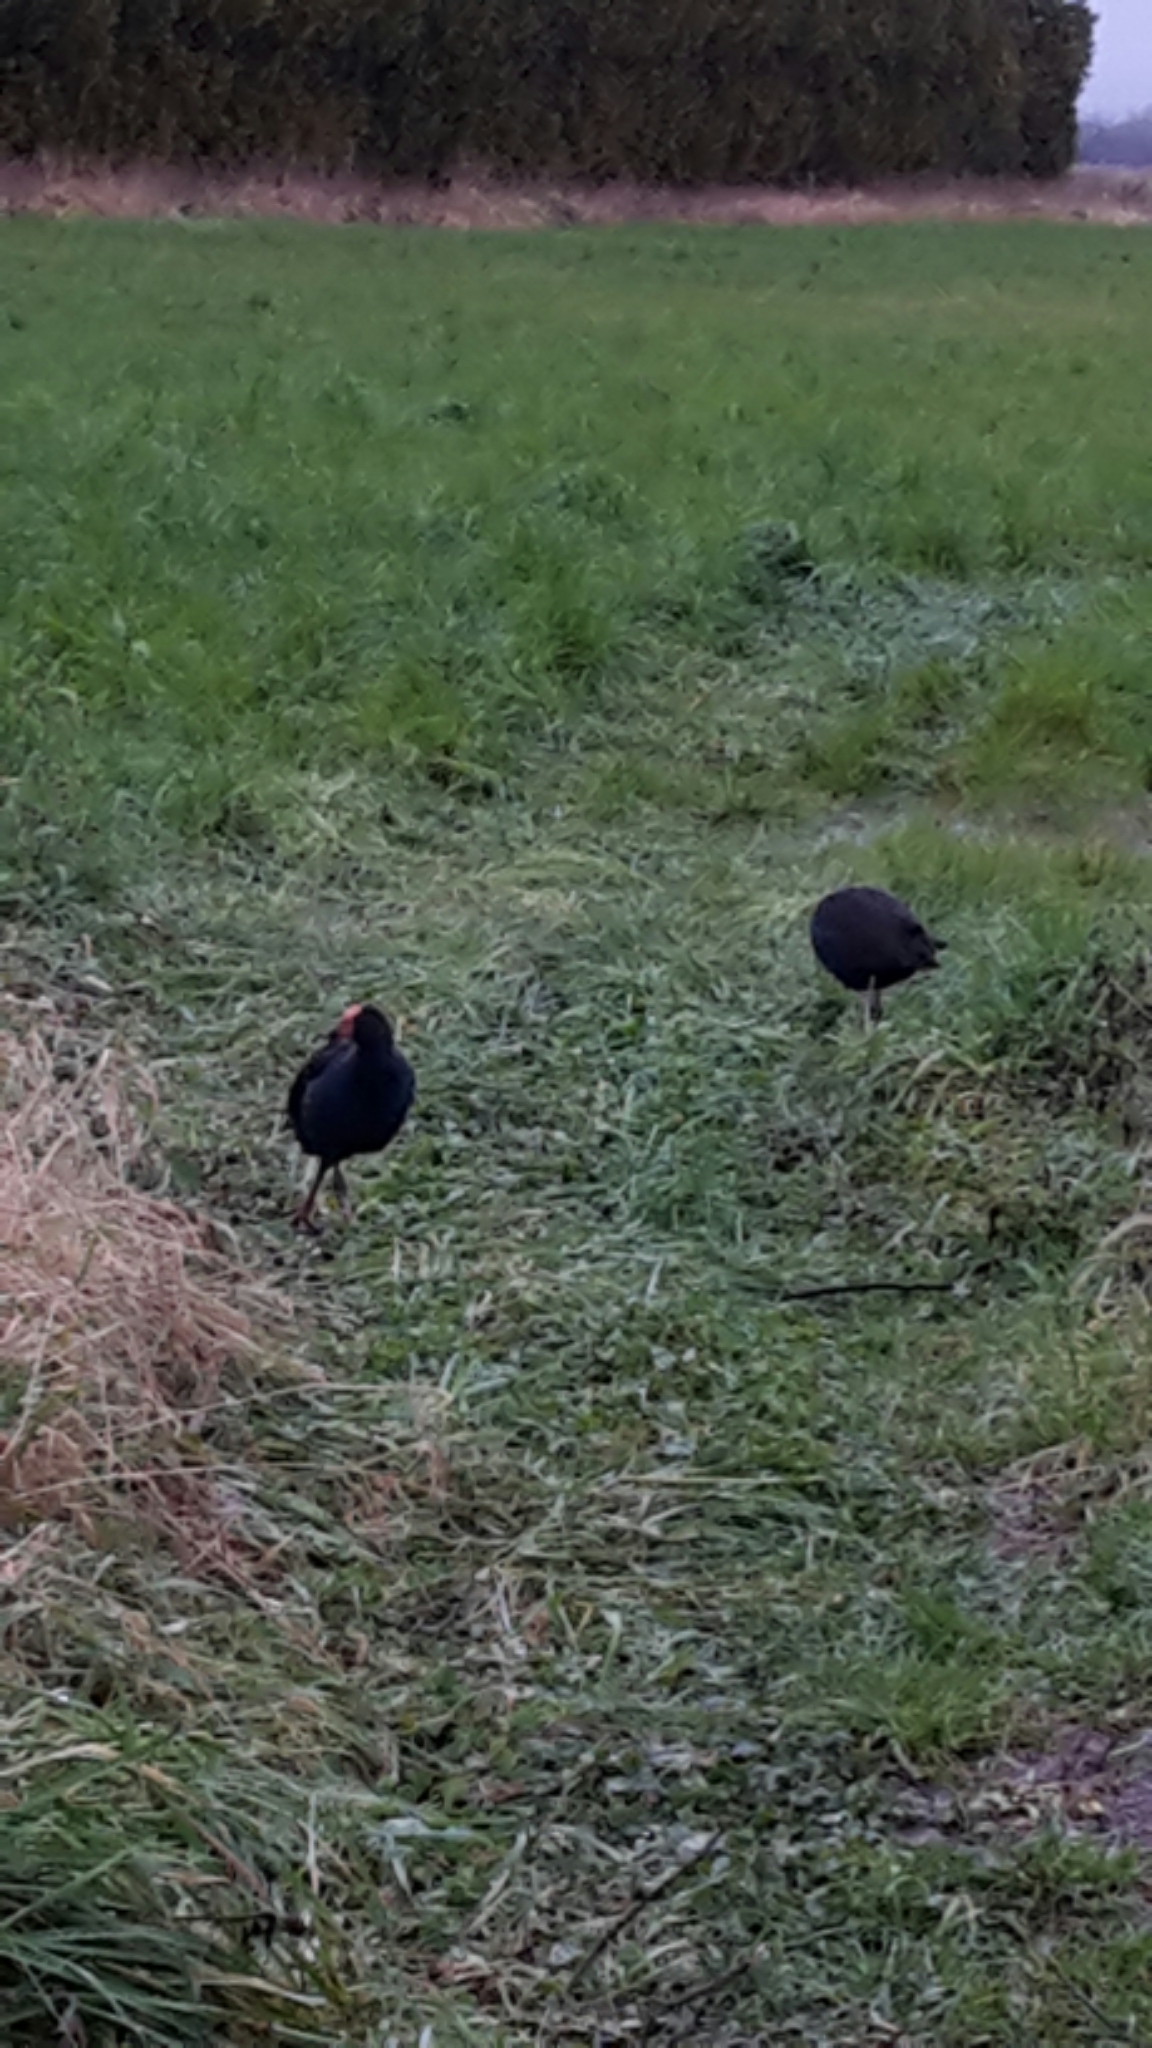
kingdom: Animalia
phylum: Chordata
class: Aves
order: Gruiformes
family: Rallidae
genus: Porphyrio
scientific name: Porphyrio melanotus
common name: Australasian swamphen
